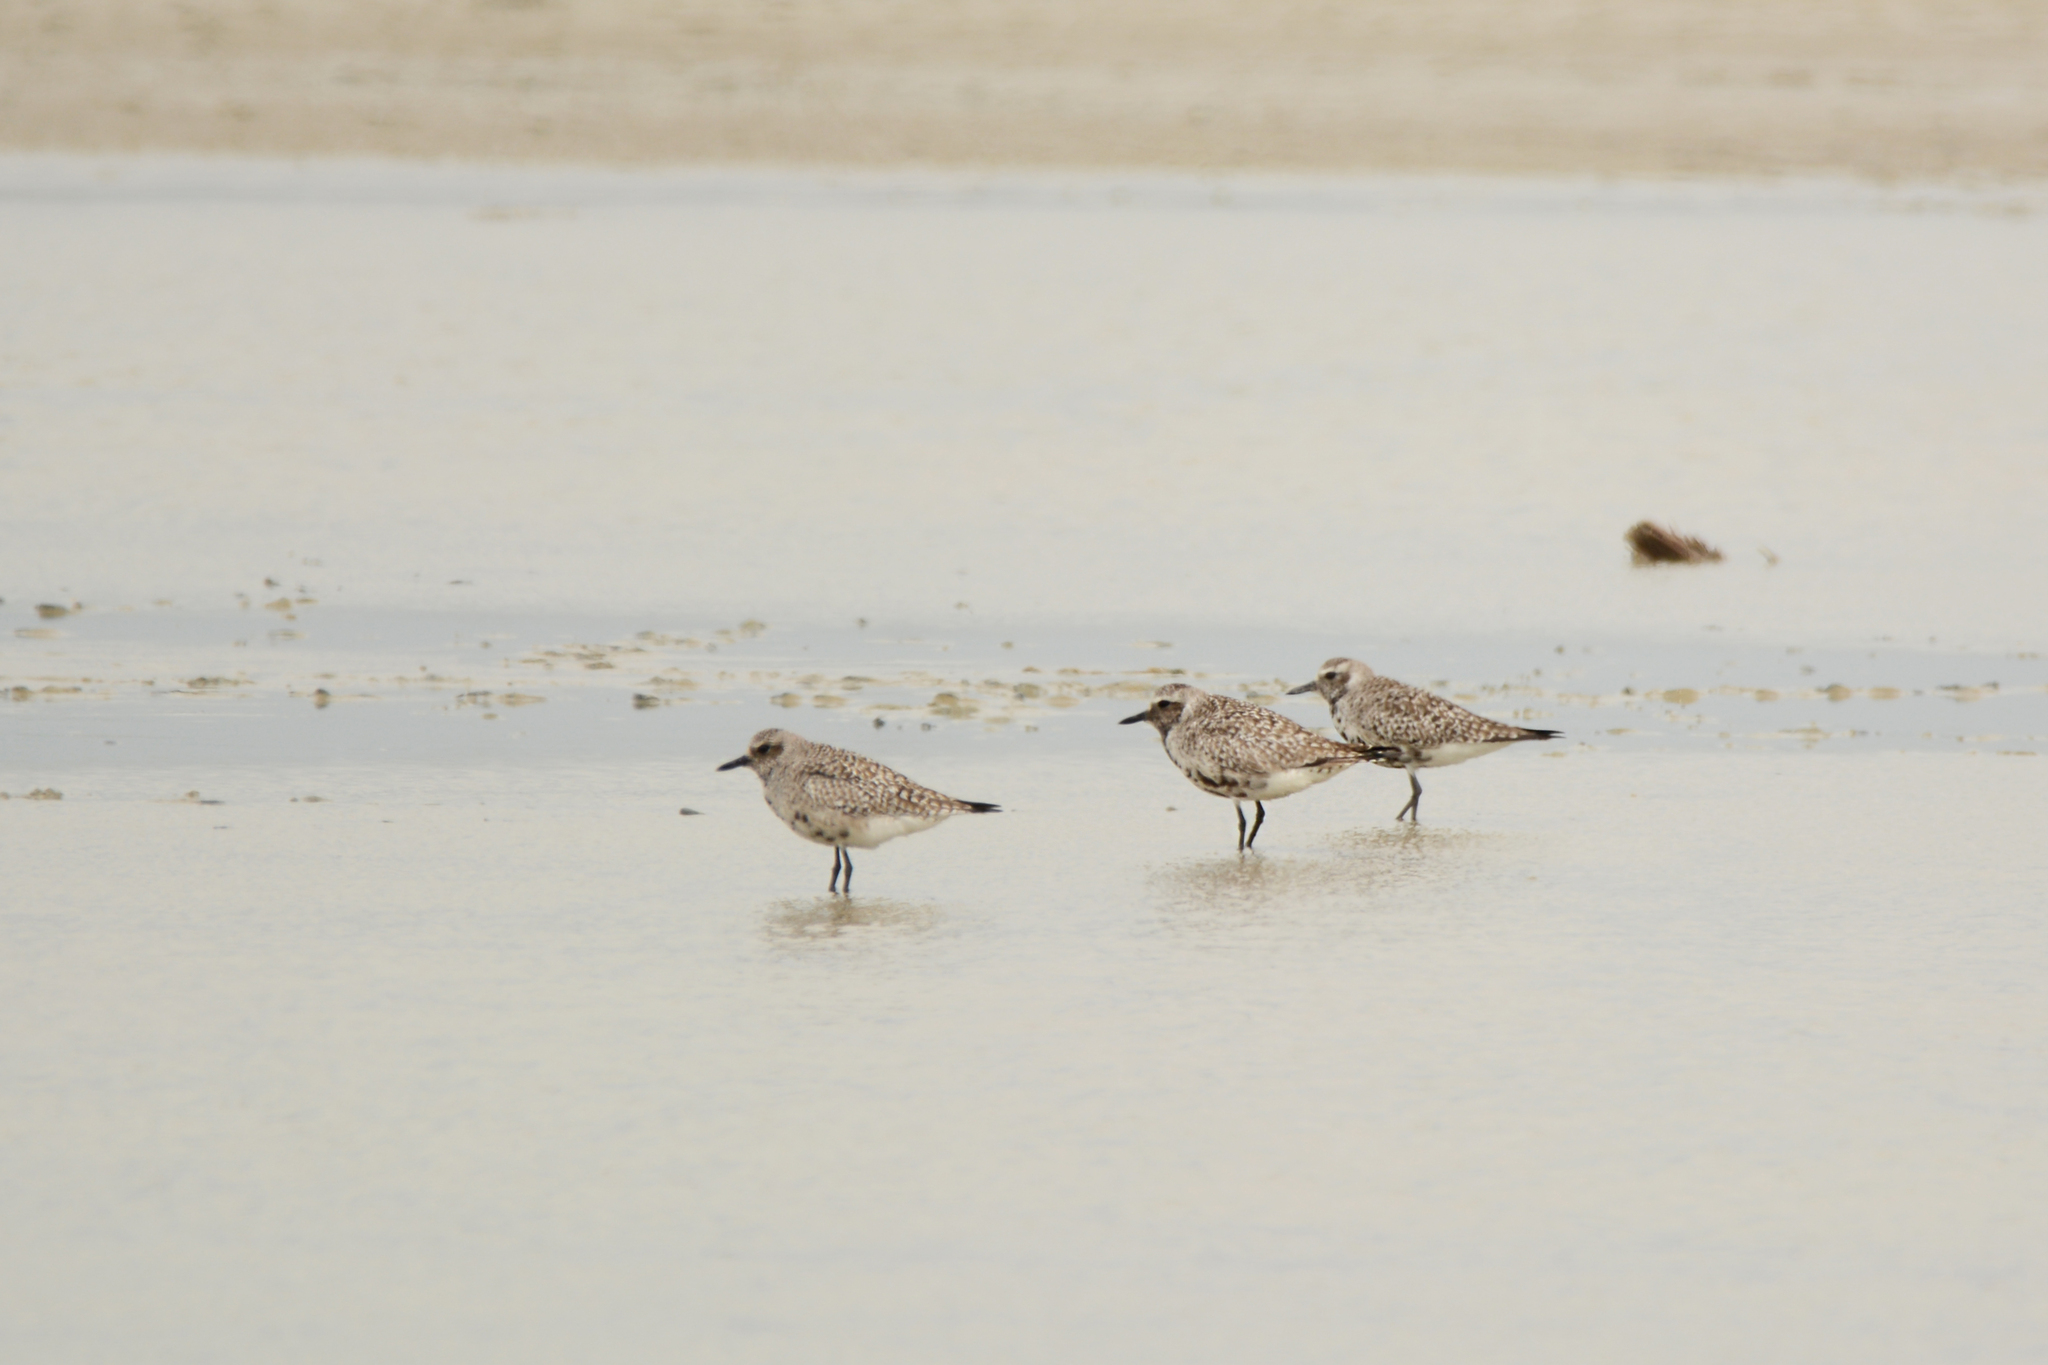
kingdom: Animalia
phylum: Chordata
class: Aves
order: Charadriiformes
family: Charadriidae
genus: Pluvialis
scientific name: Pluvialis squatarola
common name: Grey plover
